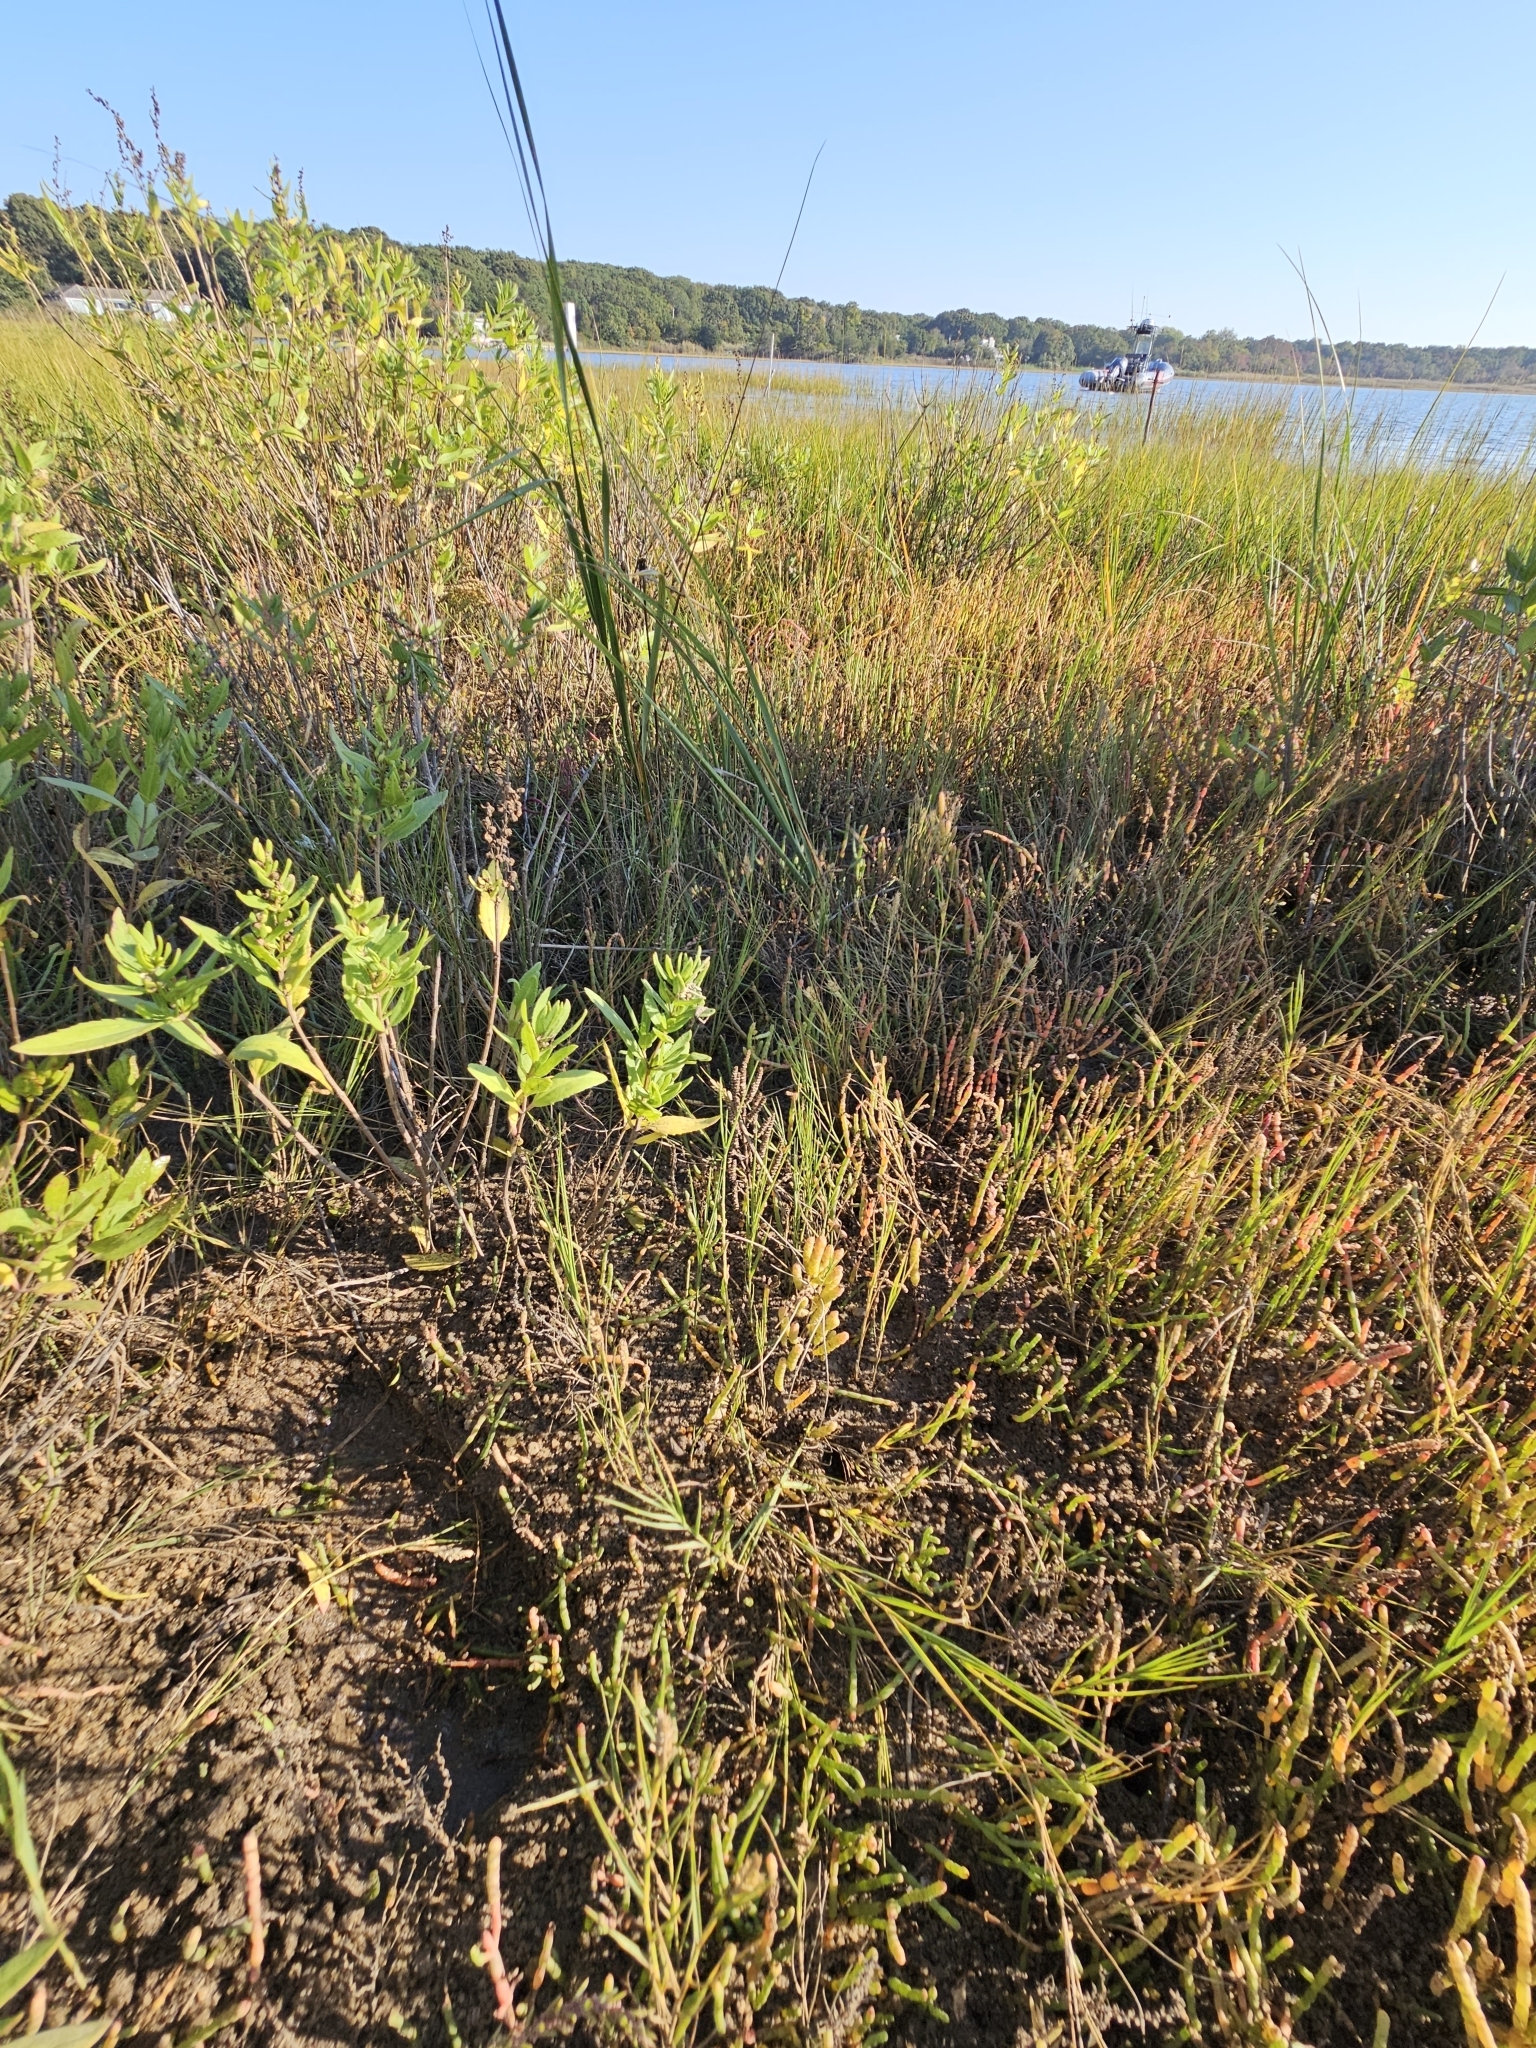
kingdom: Plantae
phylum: Tracheophyta
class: Magnoliopsida
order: Caryophyllales
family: Amaranthaceae
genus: Salicornia
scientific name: Salicornia bigelovii
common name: Dwarf glasswort
